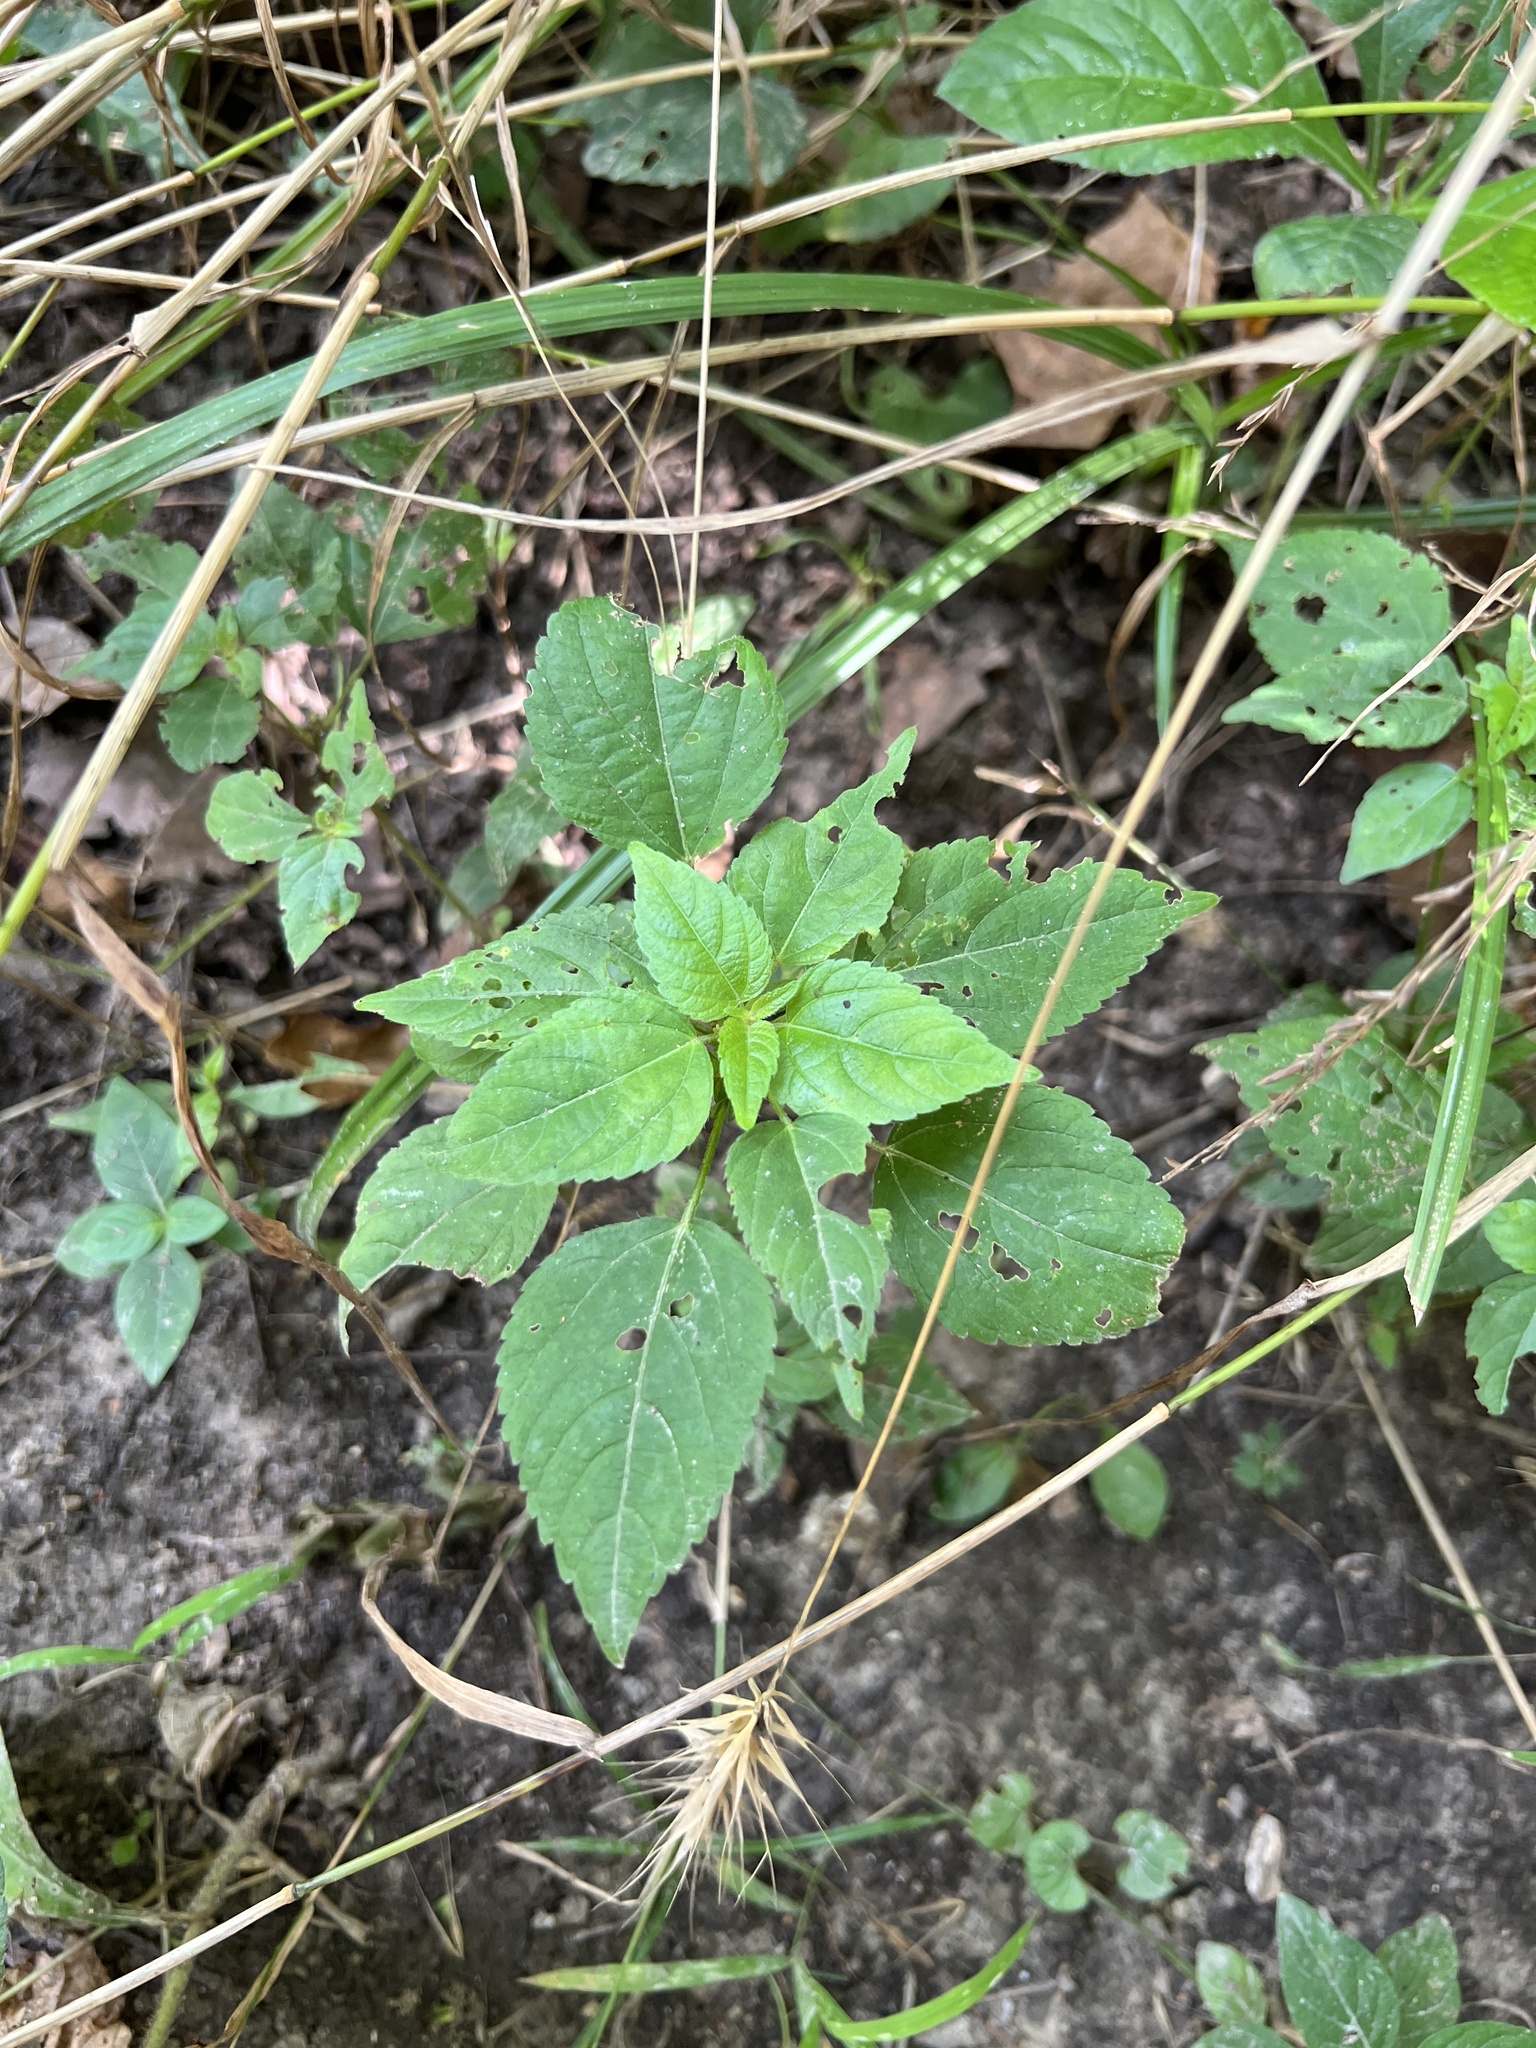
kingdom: Plantae
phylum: Tracheophyta
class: Magnoliopsida
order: Malpighiales
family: Euphorbiaceae
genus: Acalypha
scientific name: Acalypha deamii
